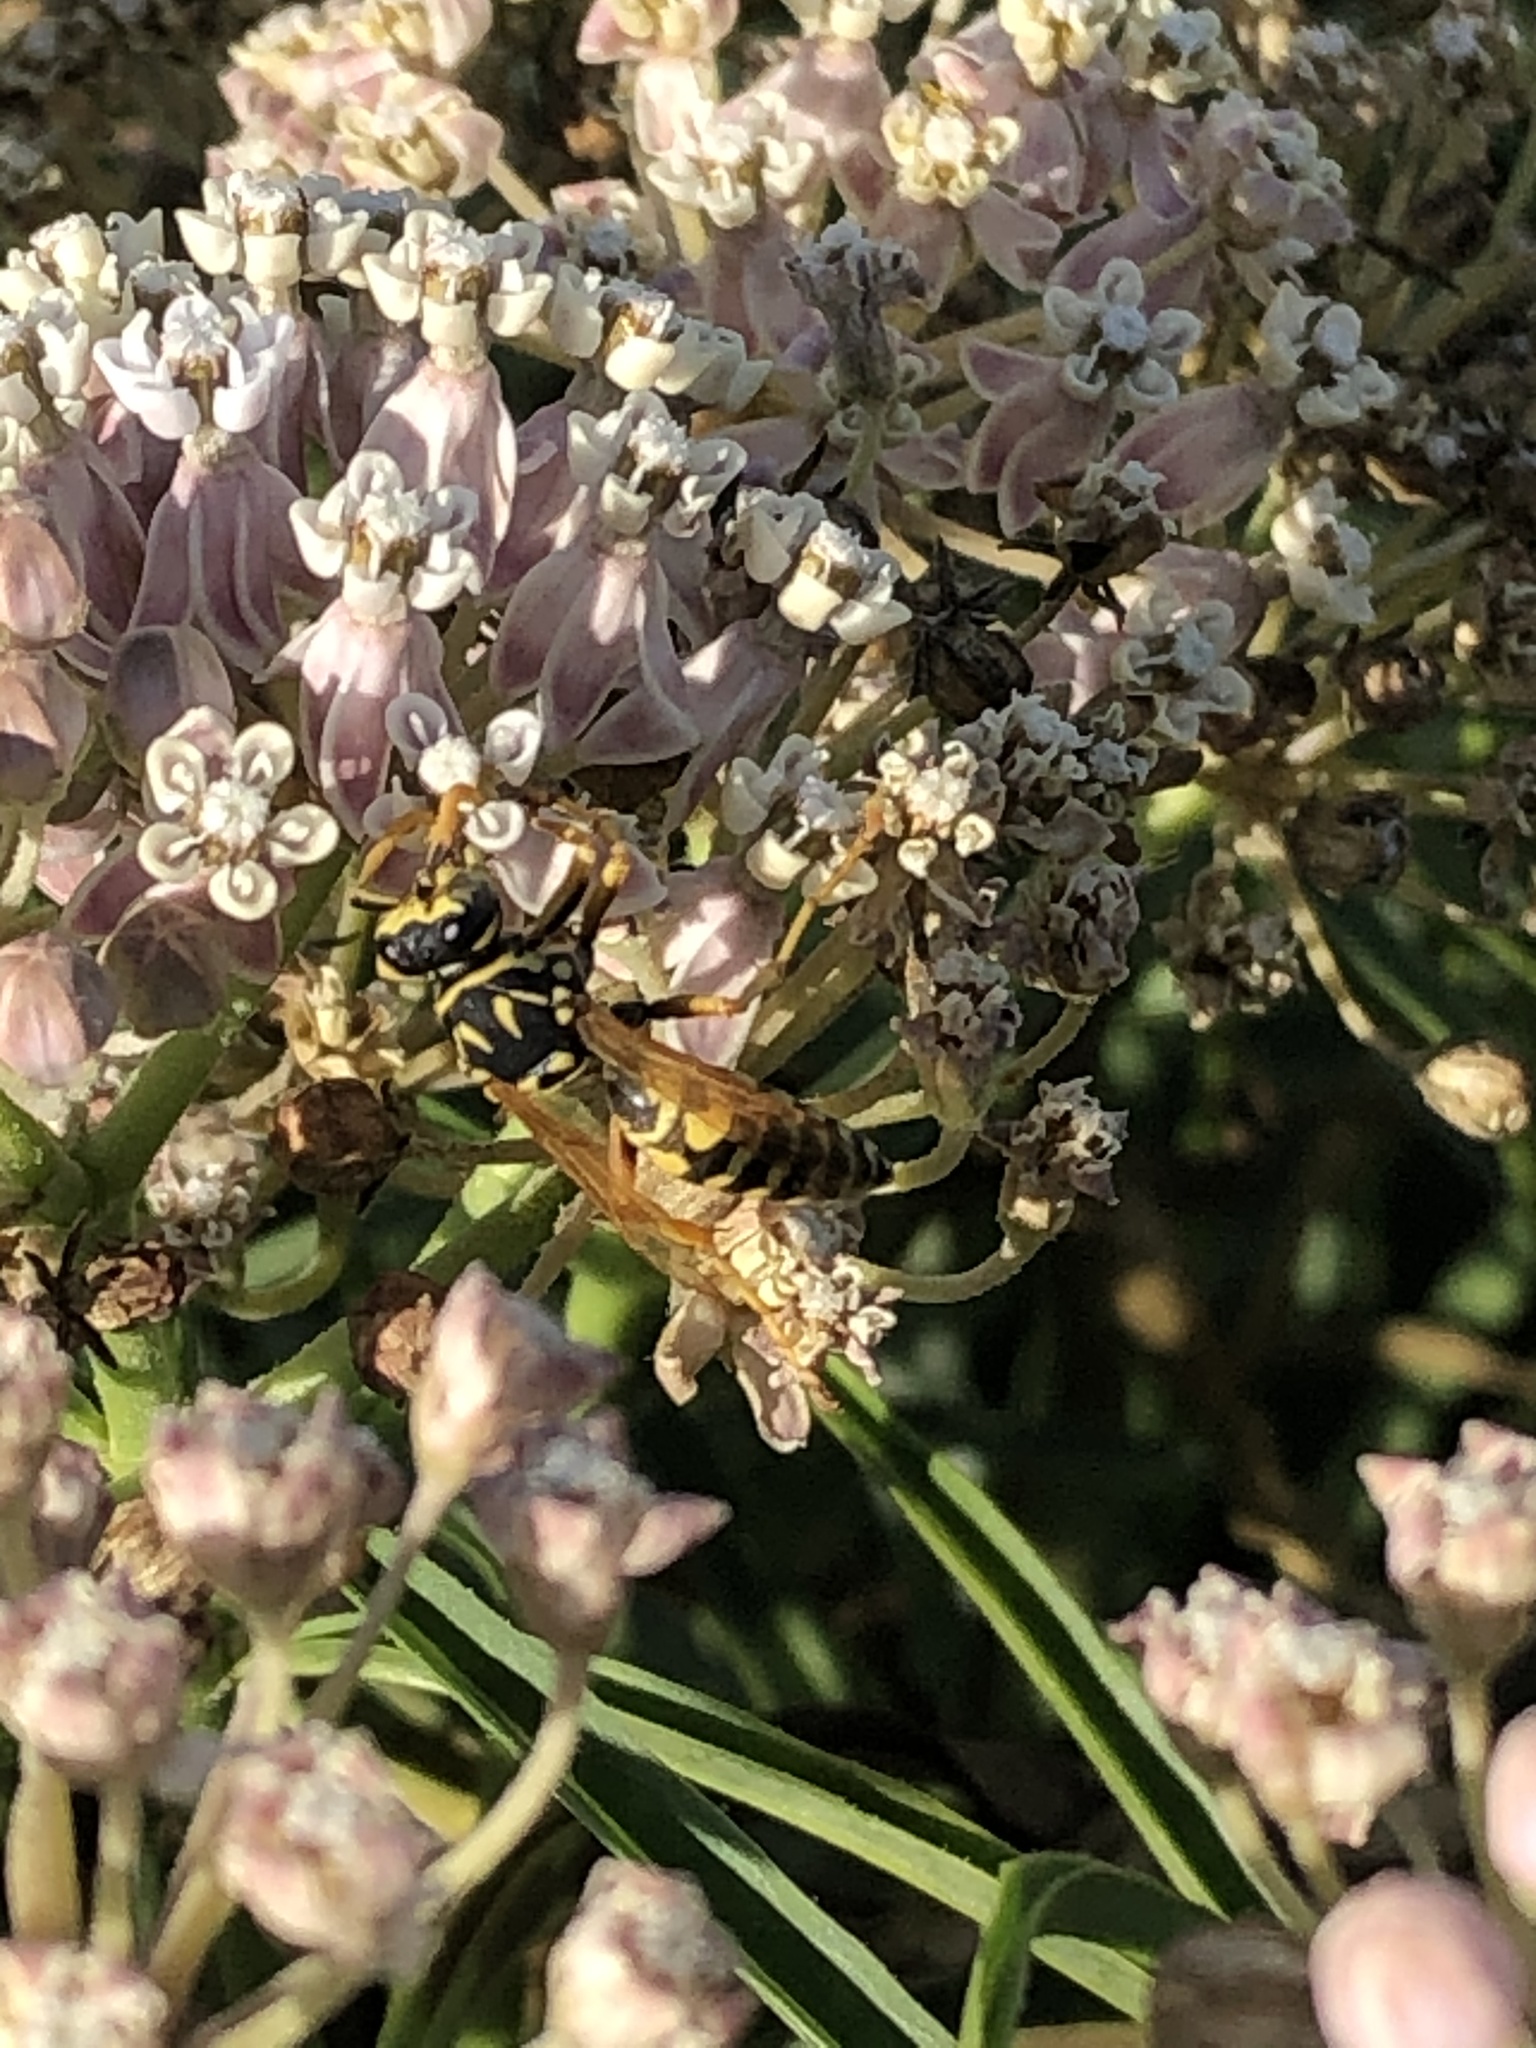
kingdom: Animalia
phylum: Arthropoda
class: Insecta
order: Hymenoptera
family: Eumenidae
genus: Polistes
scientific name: Polistes dominula
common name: Paper wasp
